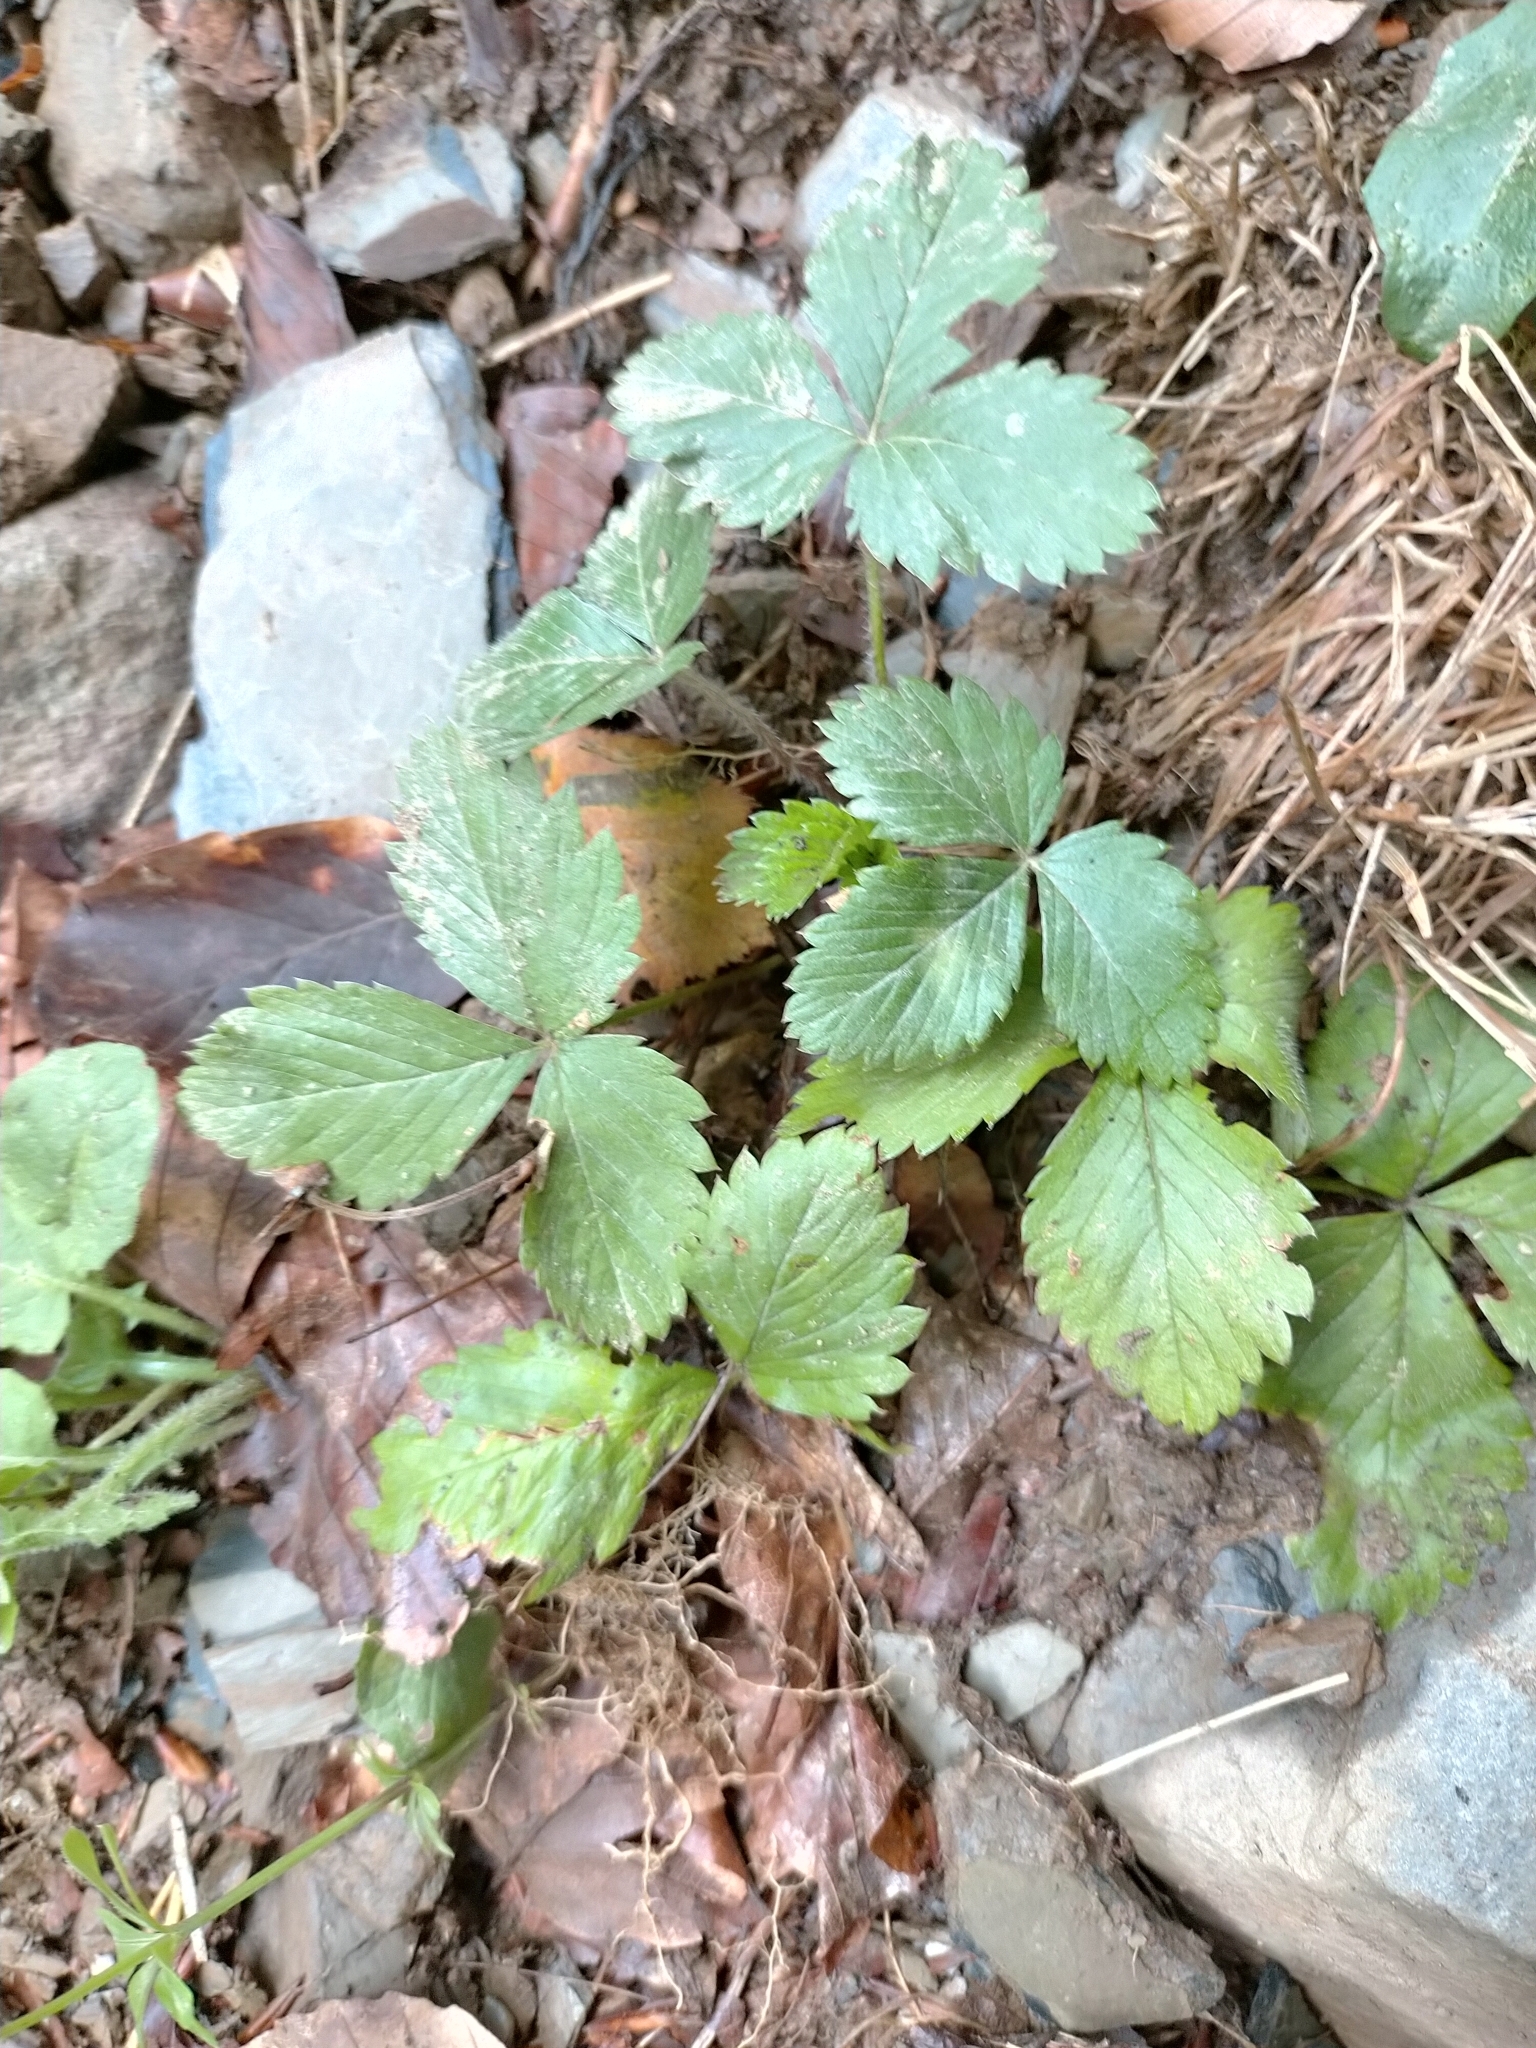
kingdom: Plantae
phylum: Tracheophyta
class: Magnoliopsida
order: Rosales
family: Rosaceae
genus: Fragaria
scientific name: Fragaria vesca
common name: Wild strawberry
